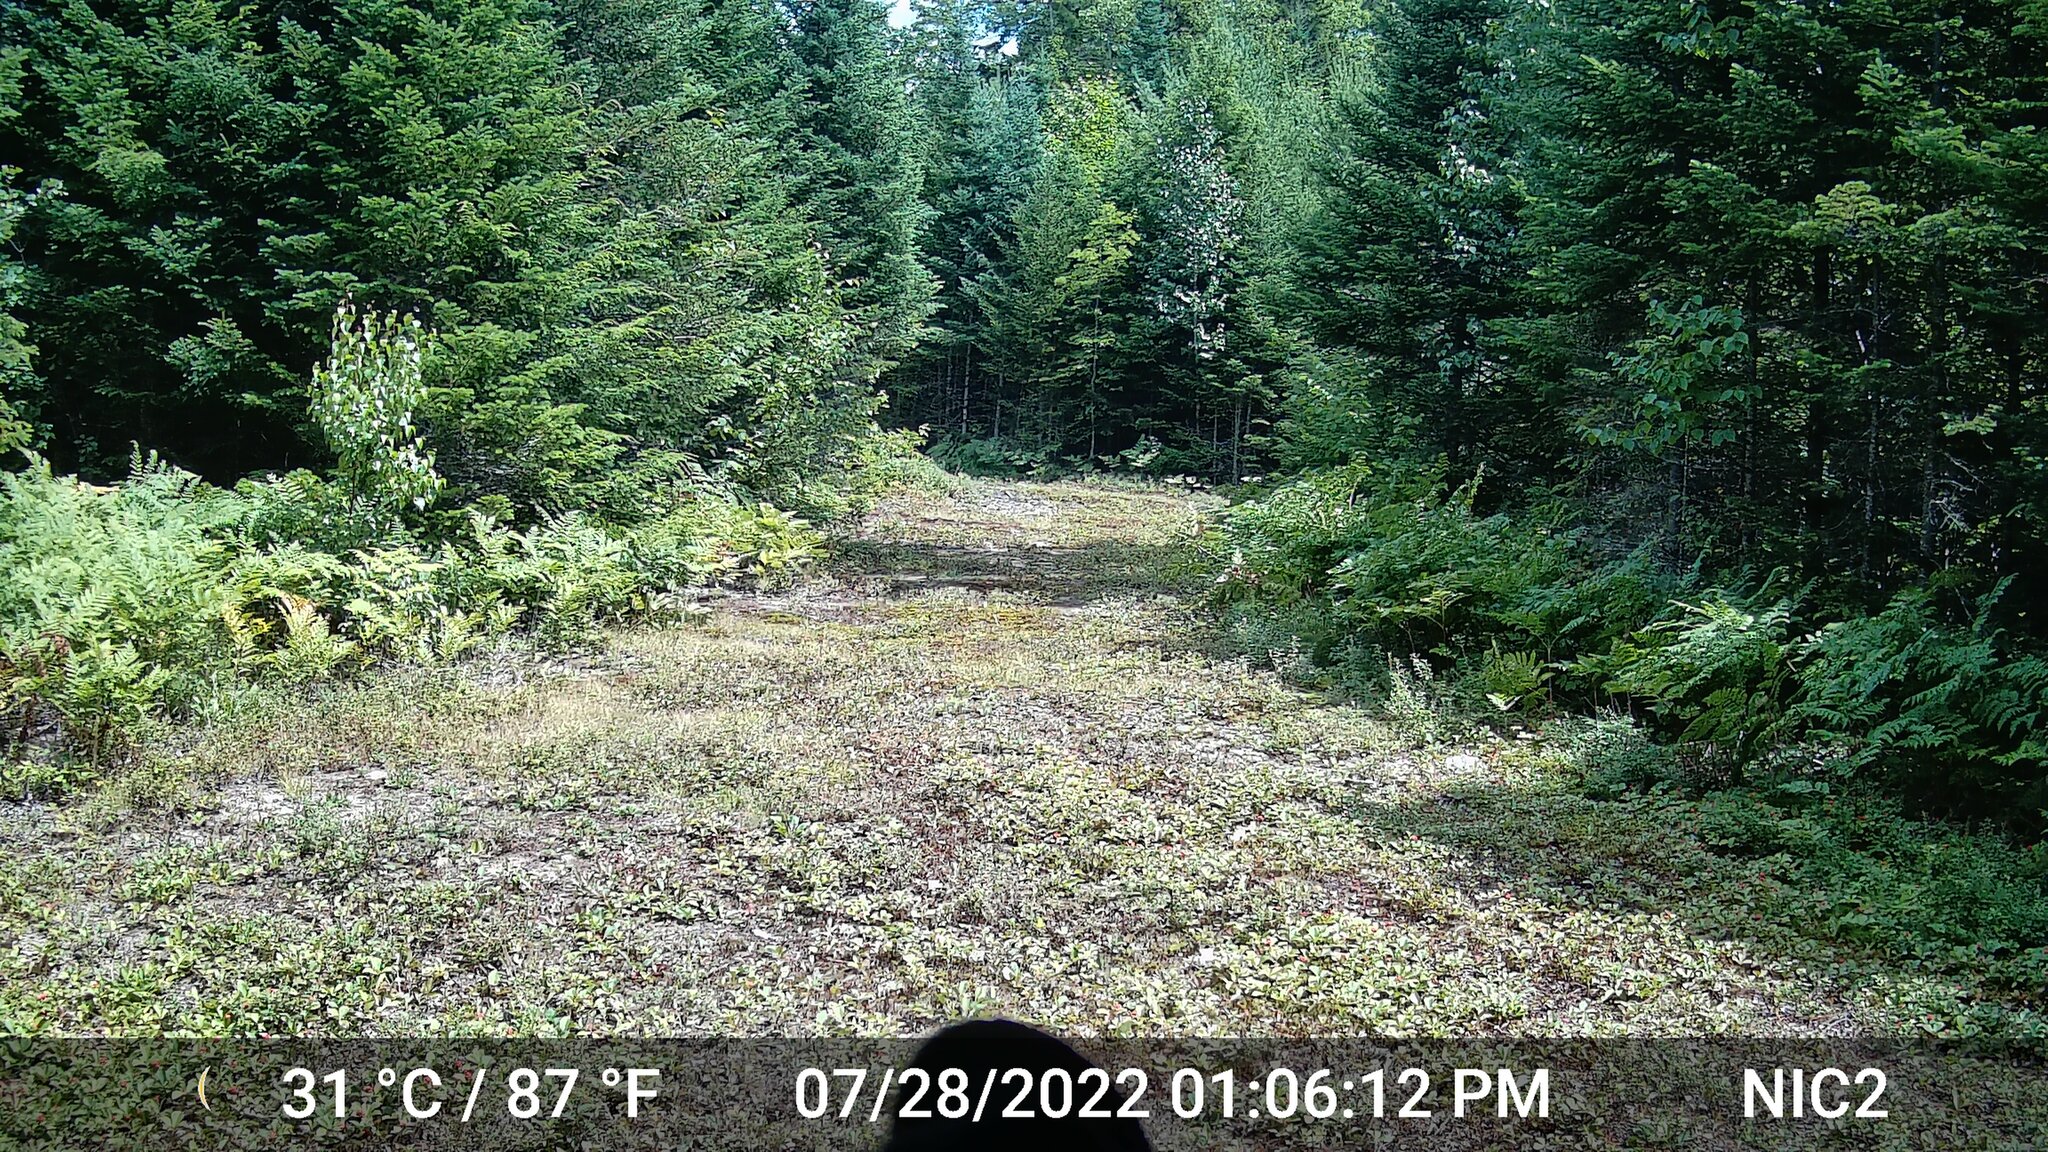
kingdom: Animalia
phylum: Chordata
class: Mammalia
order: Carnivora
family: Ursidae
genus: Ursus
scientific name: Ursus americanus
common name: American black bear
